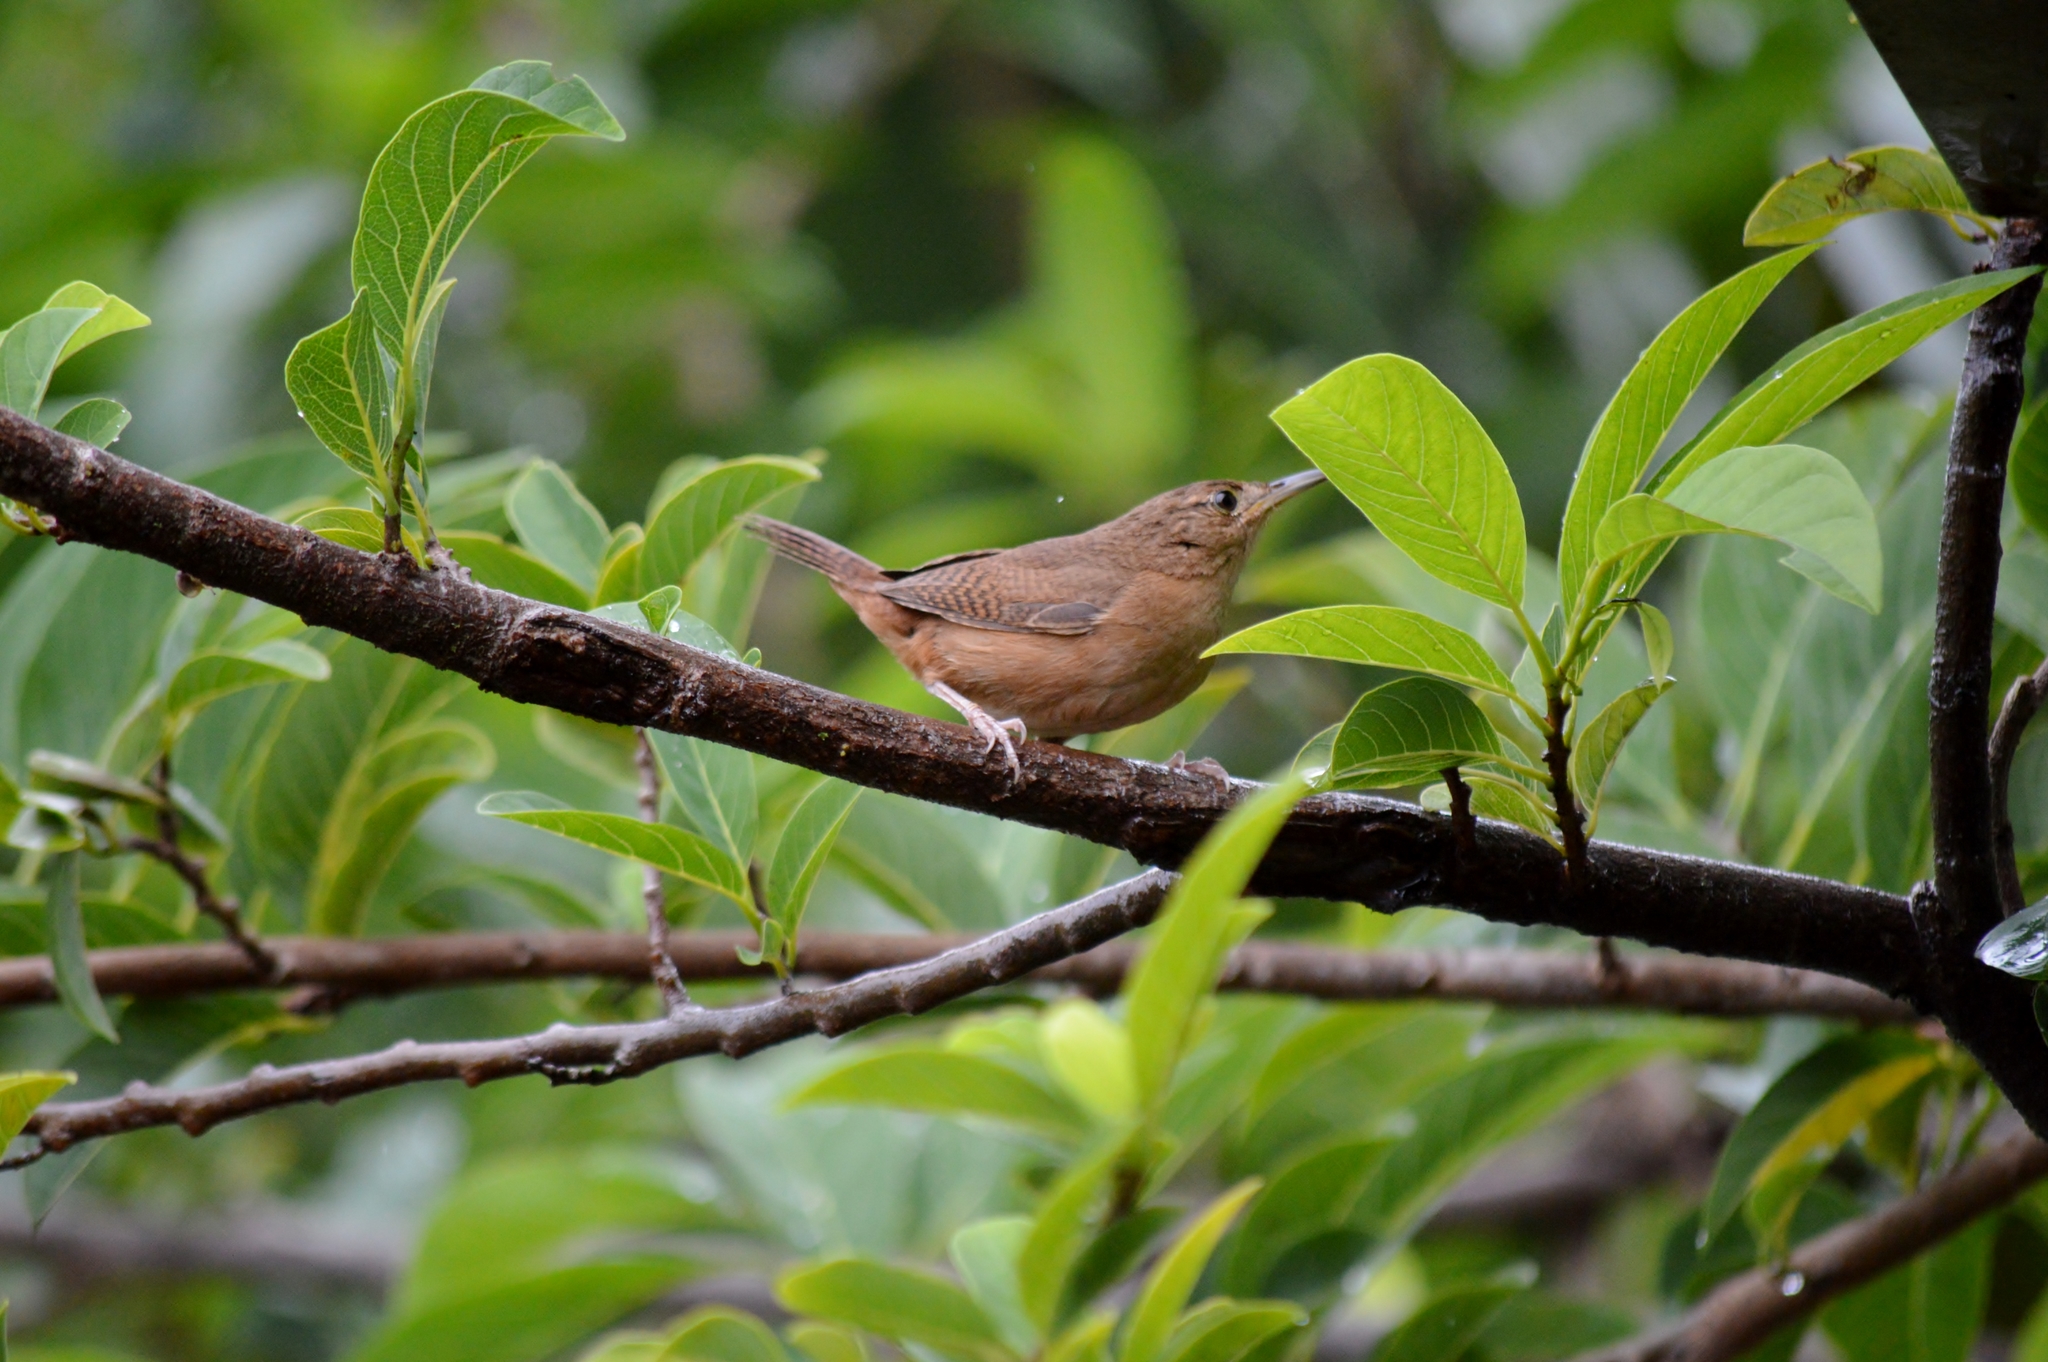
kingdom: Animalia
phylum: Chordata
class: Aves
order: Passeriformes
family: Troglodytidae
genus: Troglodytes
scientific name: Troglodytes aedon
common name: House wren
